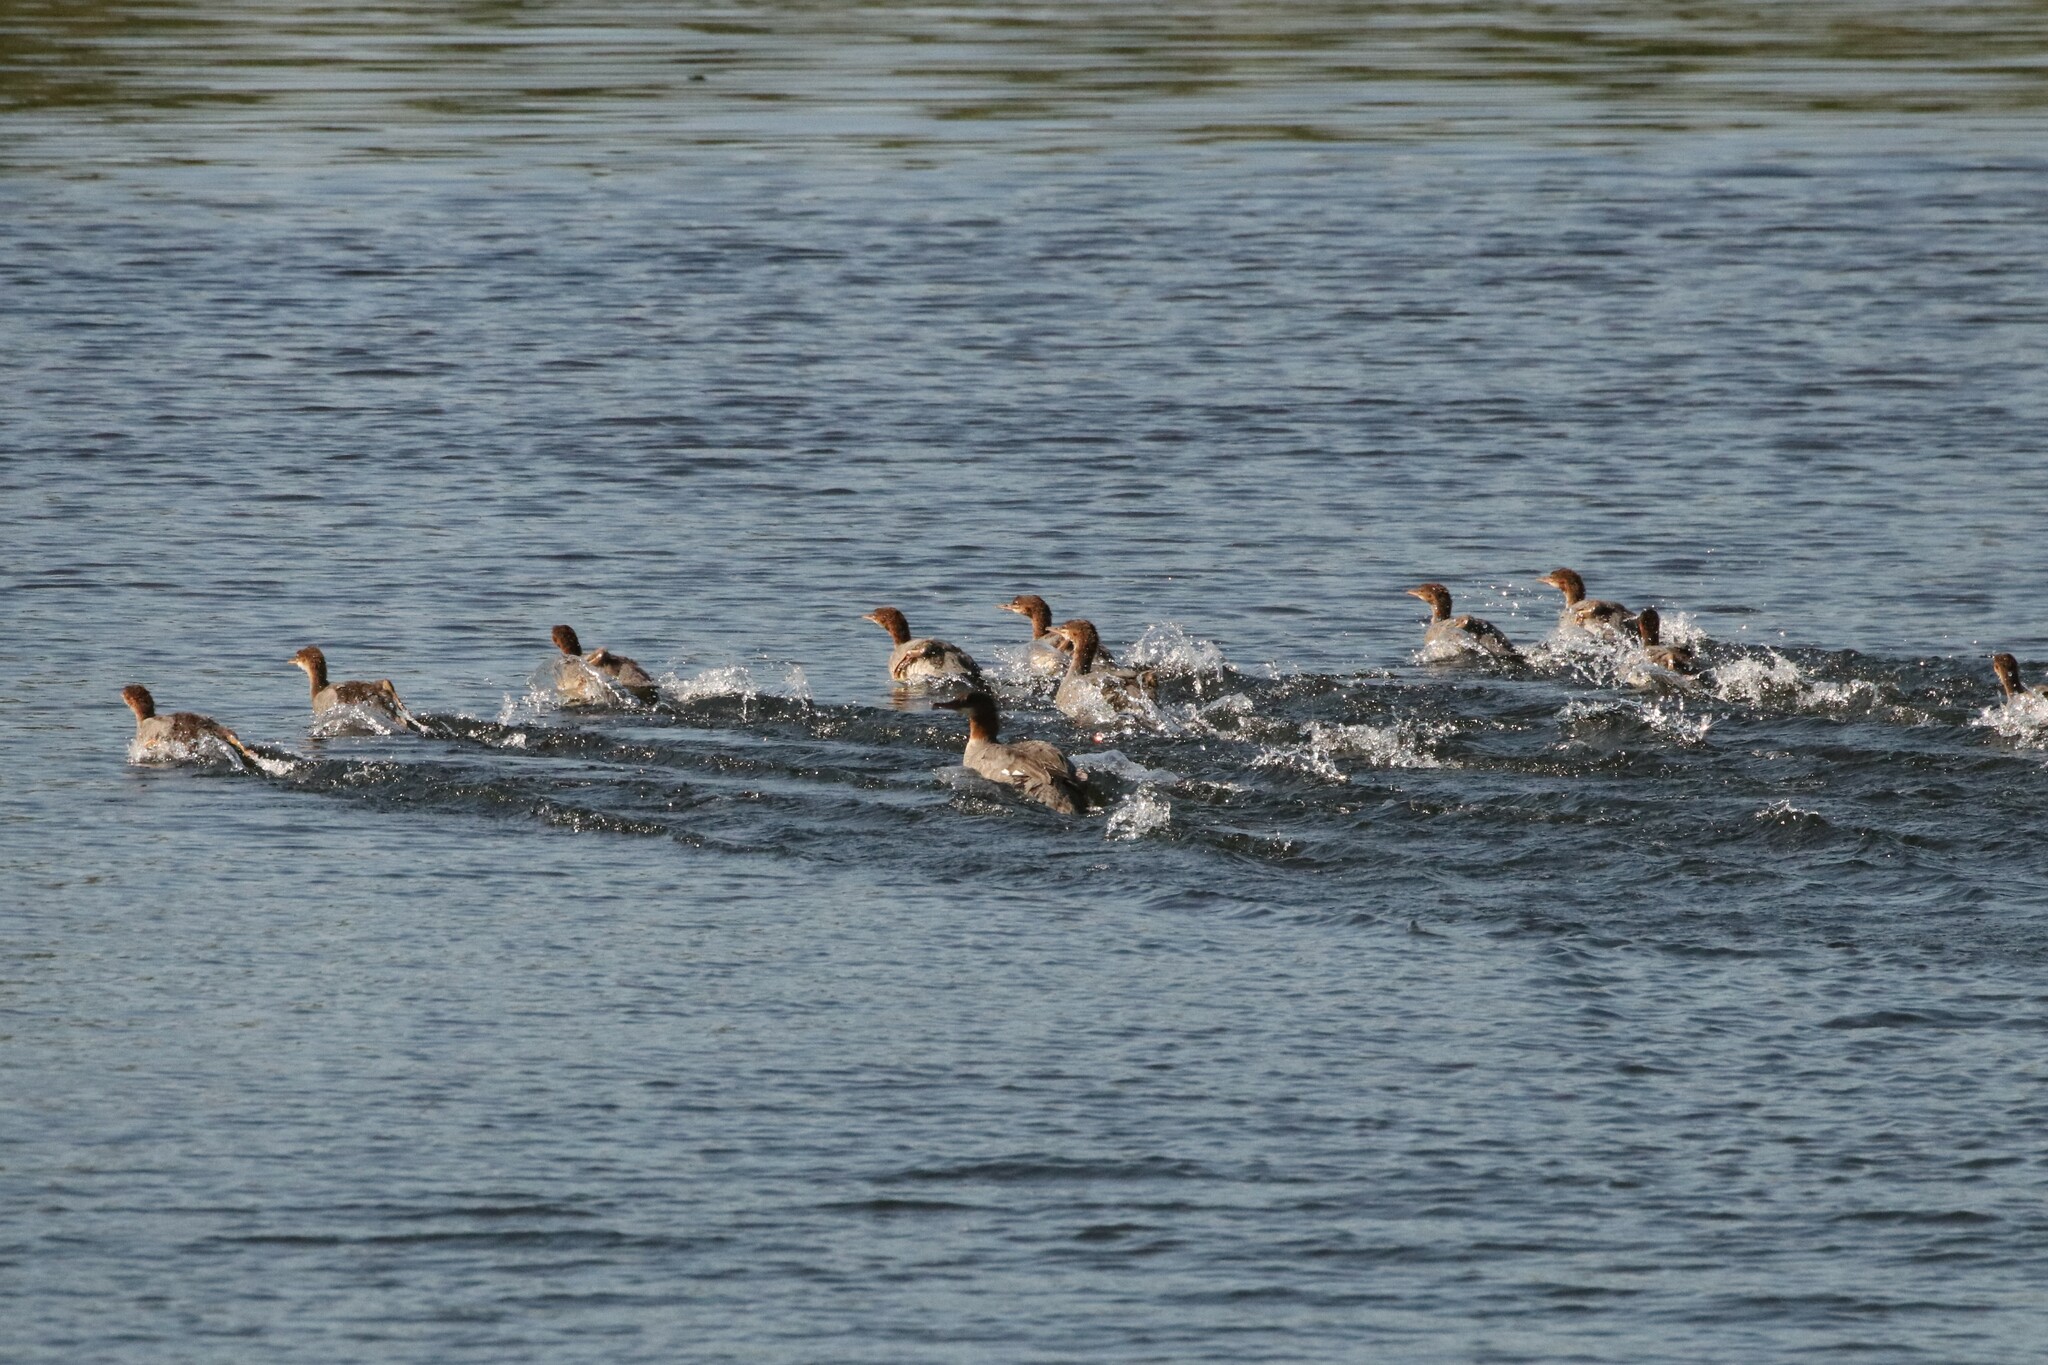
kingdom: Animalia
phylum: Chordata
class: Aves
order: Anseriformes
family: Anatidae
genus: Mergus
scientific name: Mergus merganser
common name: Common merganser
